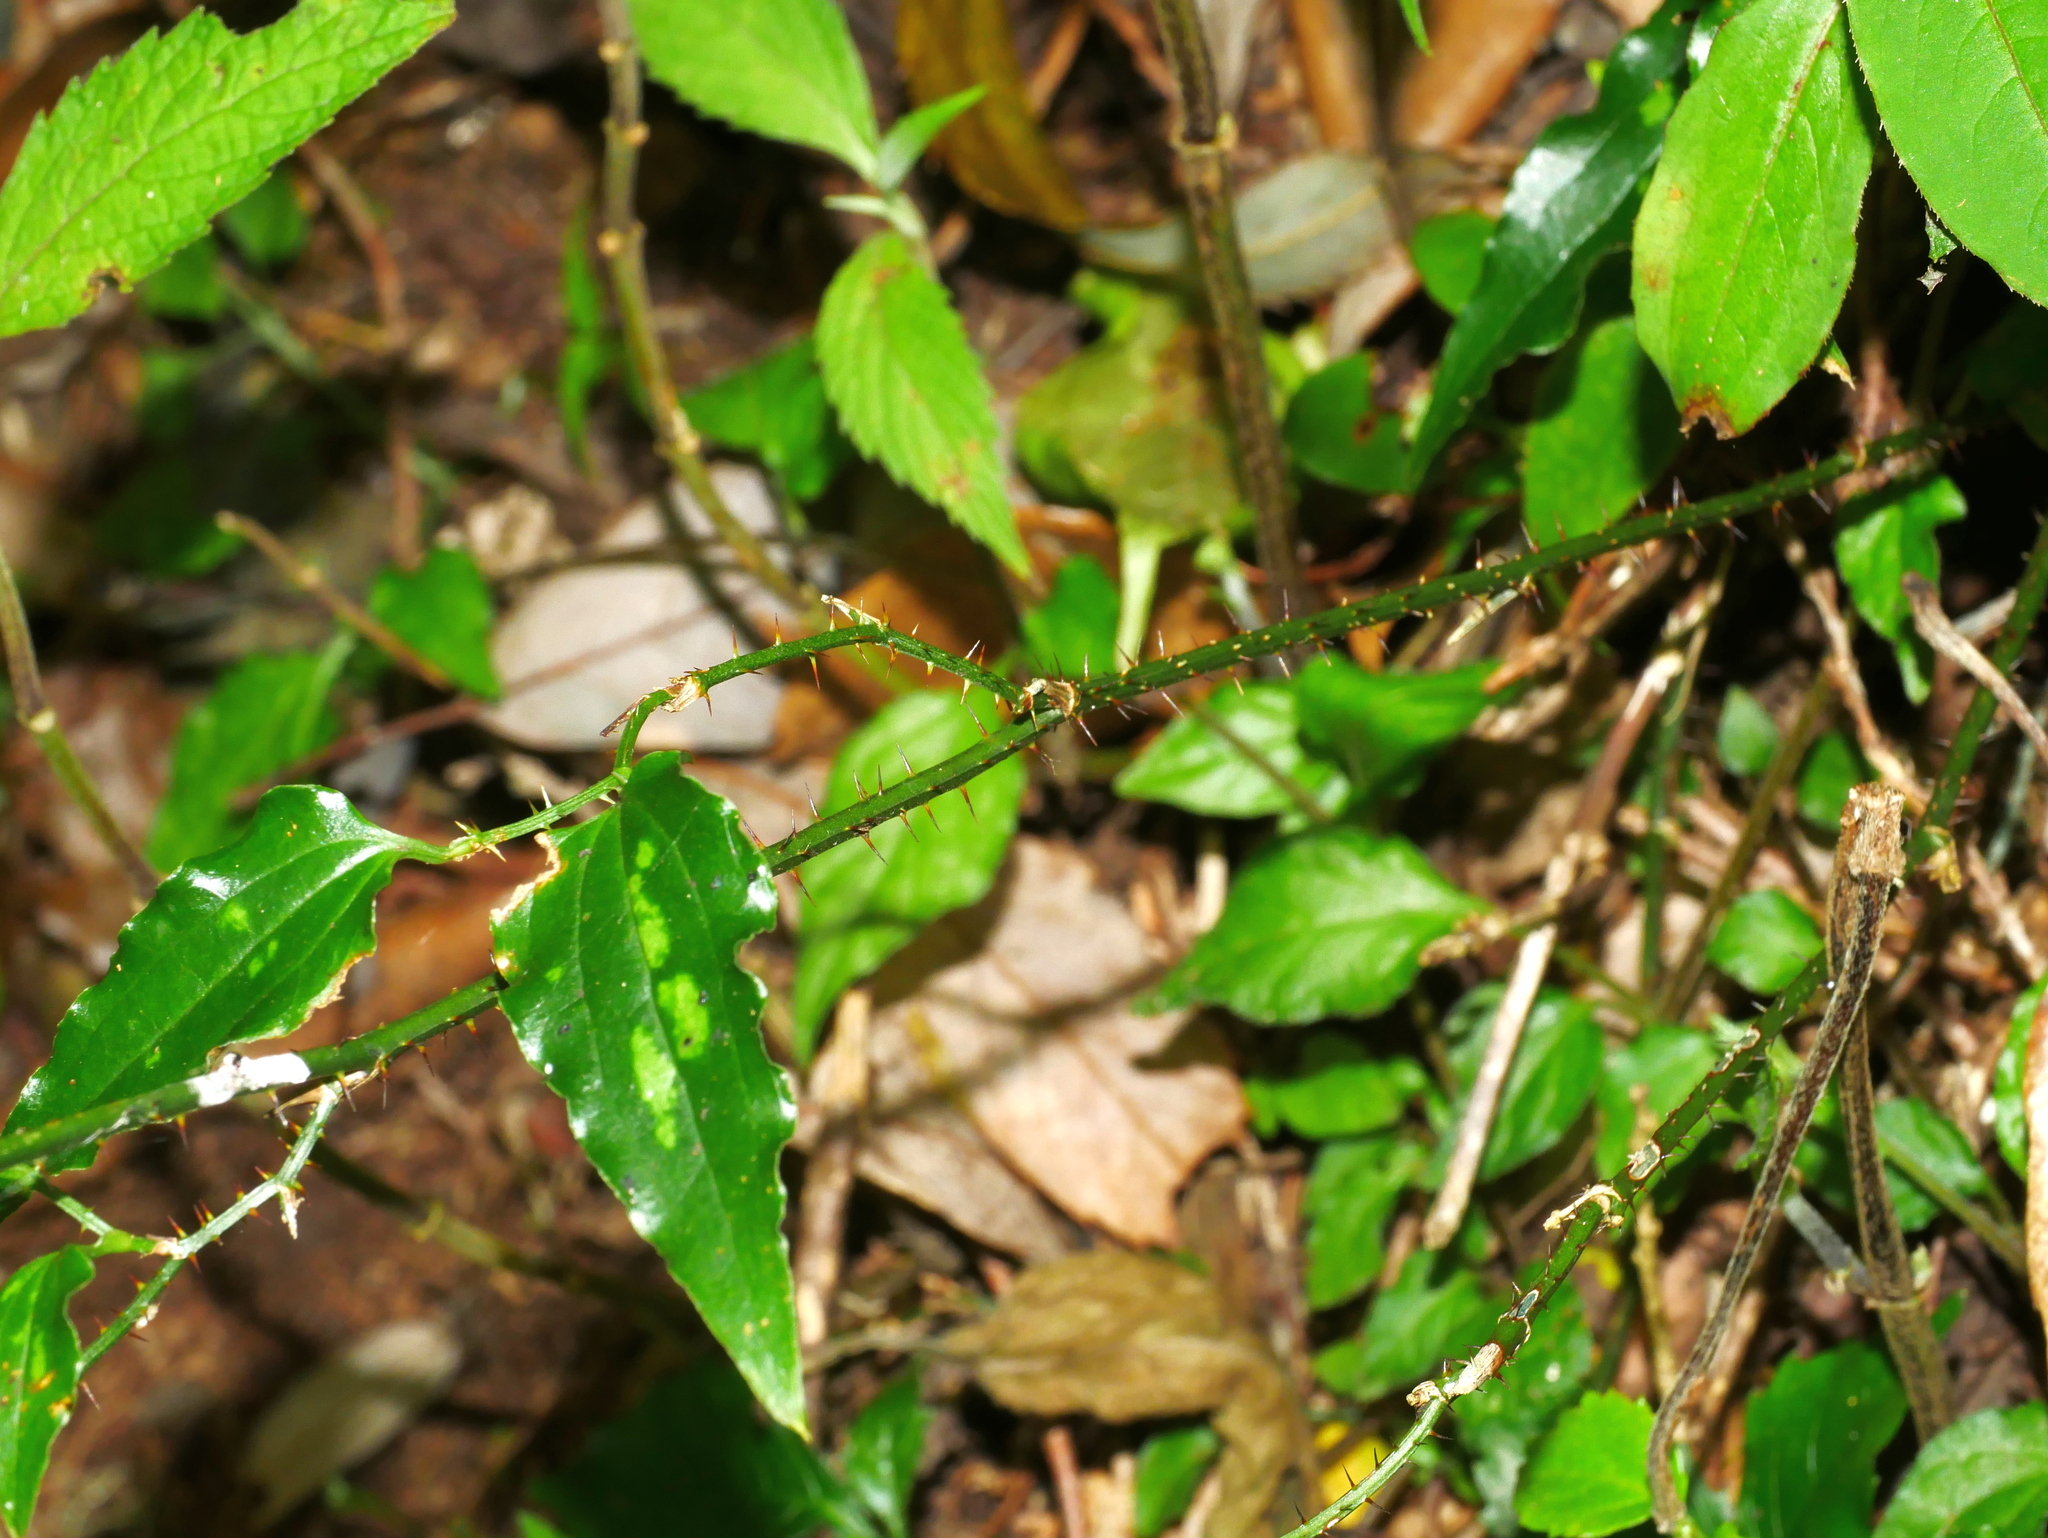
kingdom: Plantae
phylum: Tracheophyta
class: Liliopsida
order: Liliales
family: Smilacaceae
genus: Smilax
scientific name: Smilax sieboldii
